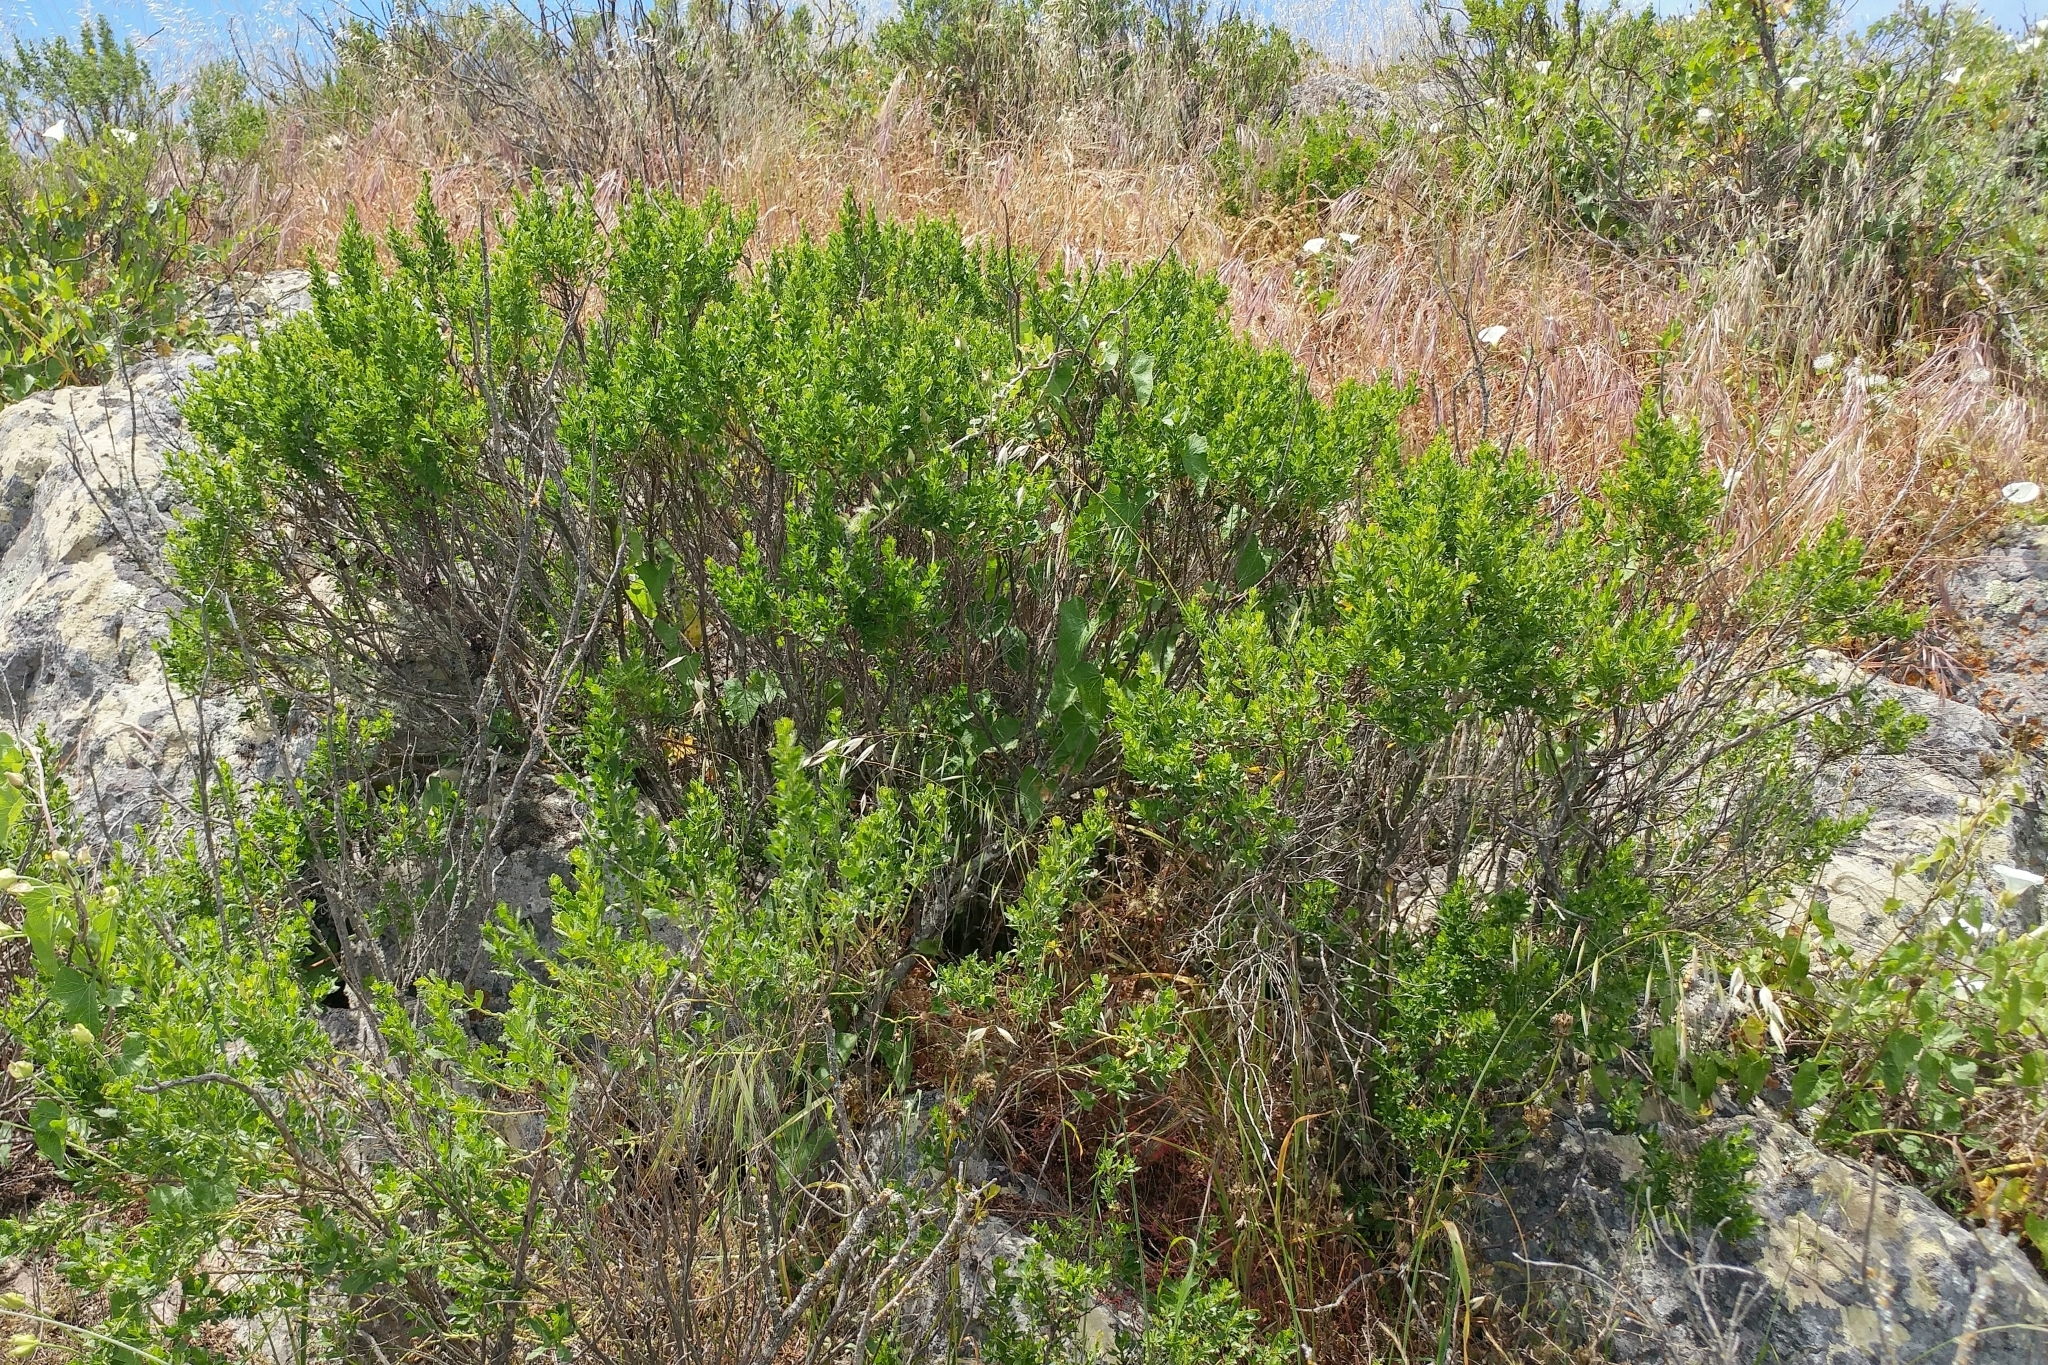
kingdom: Plantae
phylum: Tracheophyta
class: Magnoliopsida
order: Asterales
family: Asteraceae
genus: Baccharis
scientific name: Baccharis pilularis
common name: Coyotebrush
